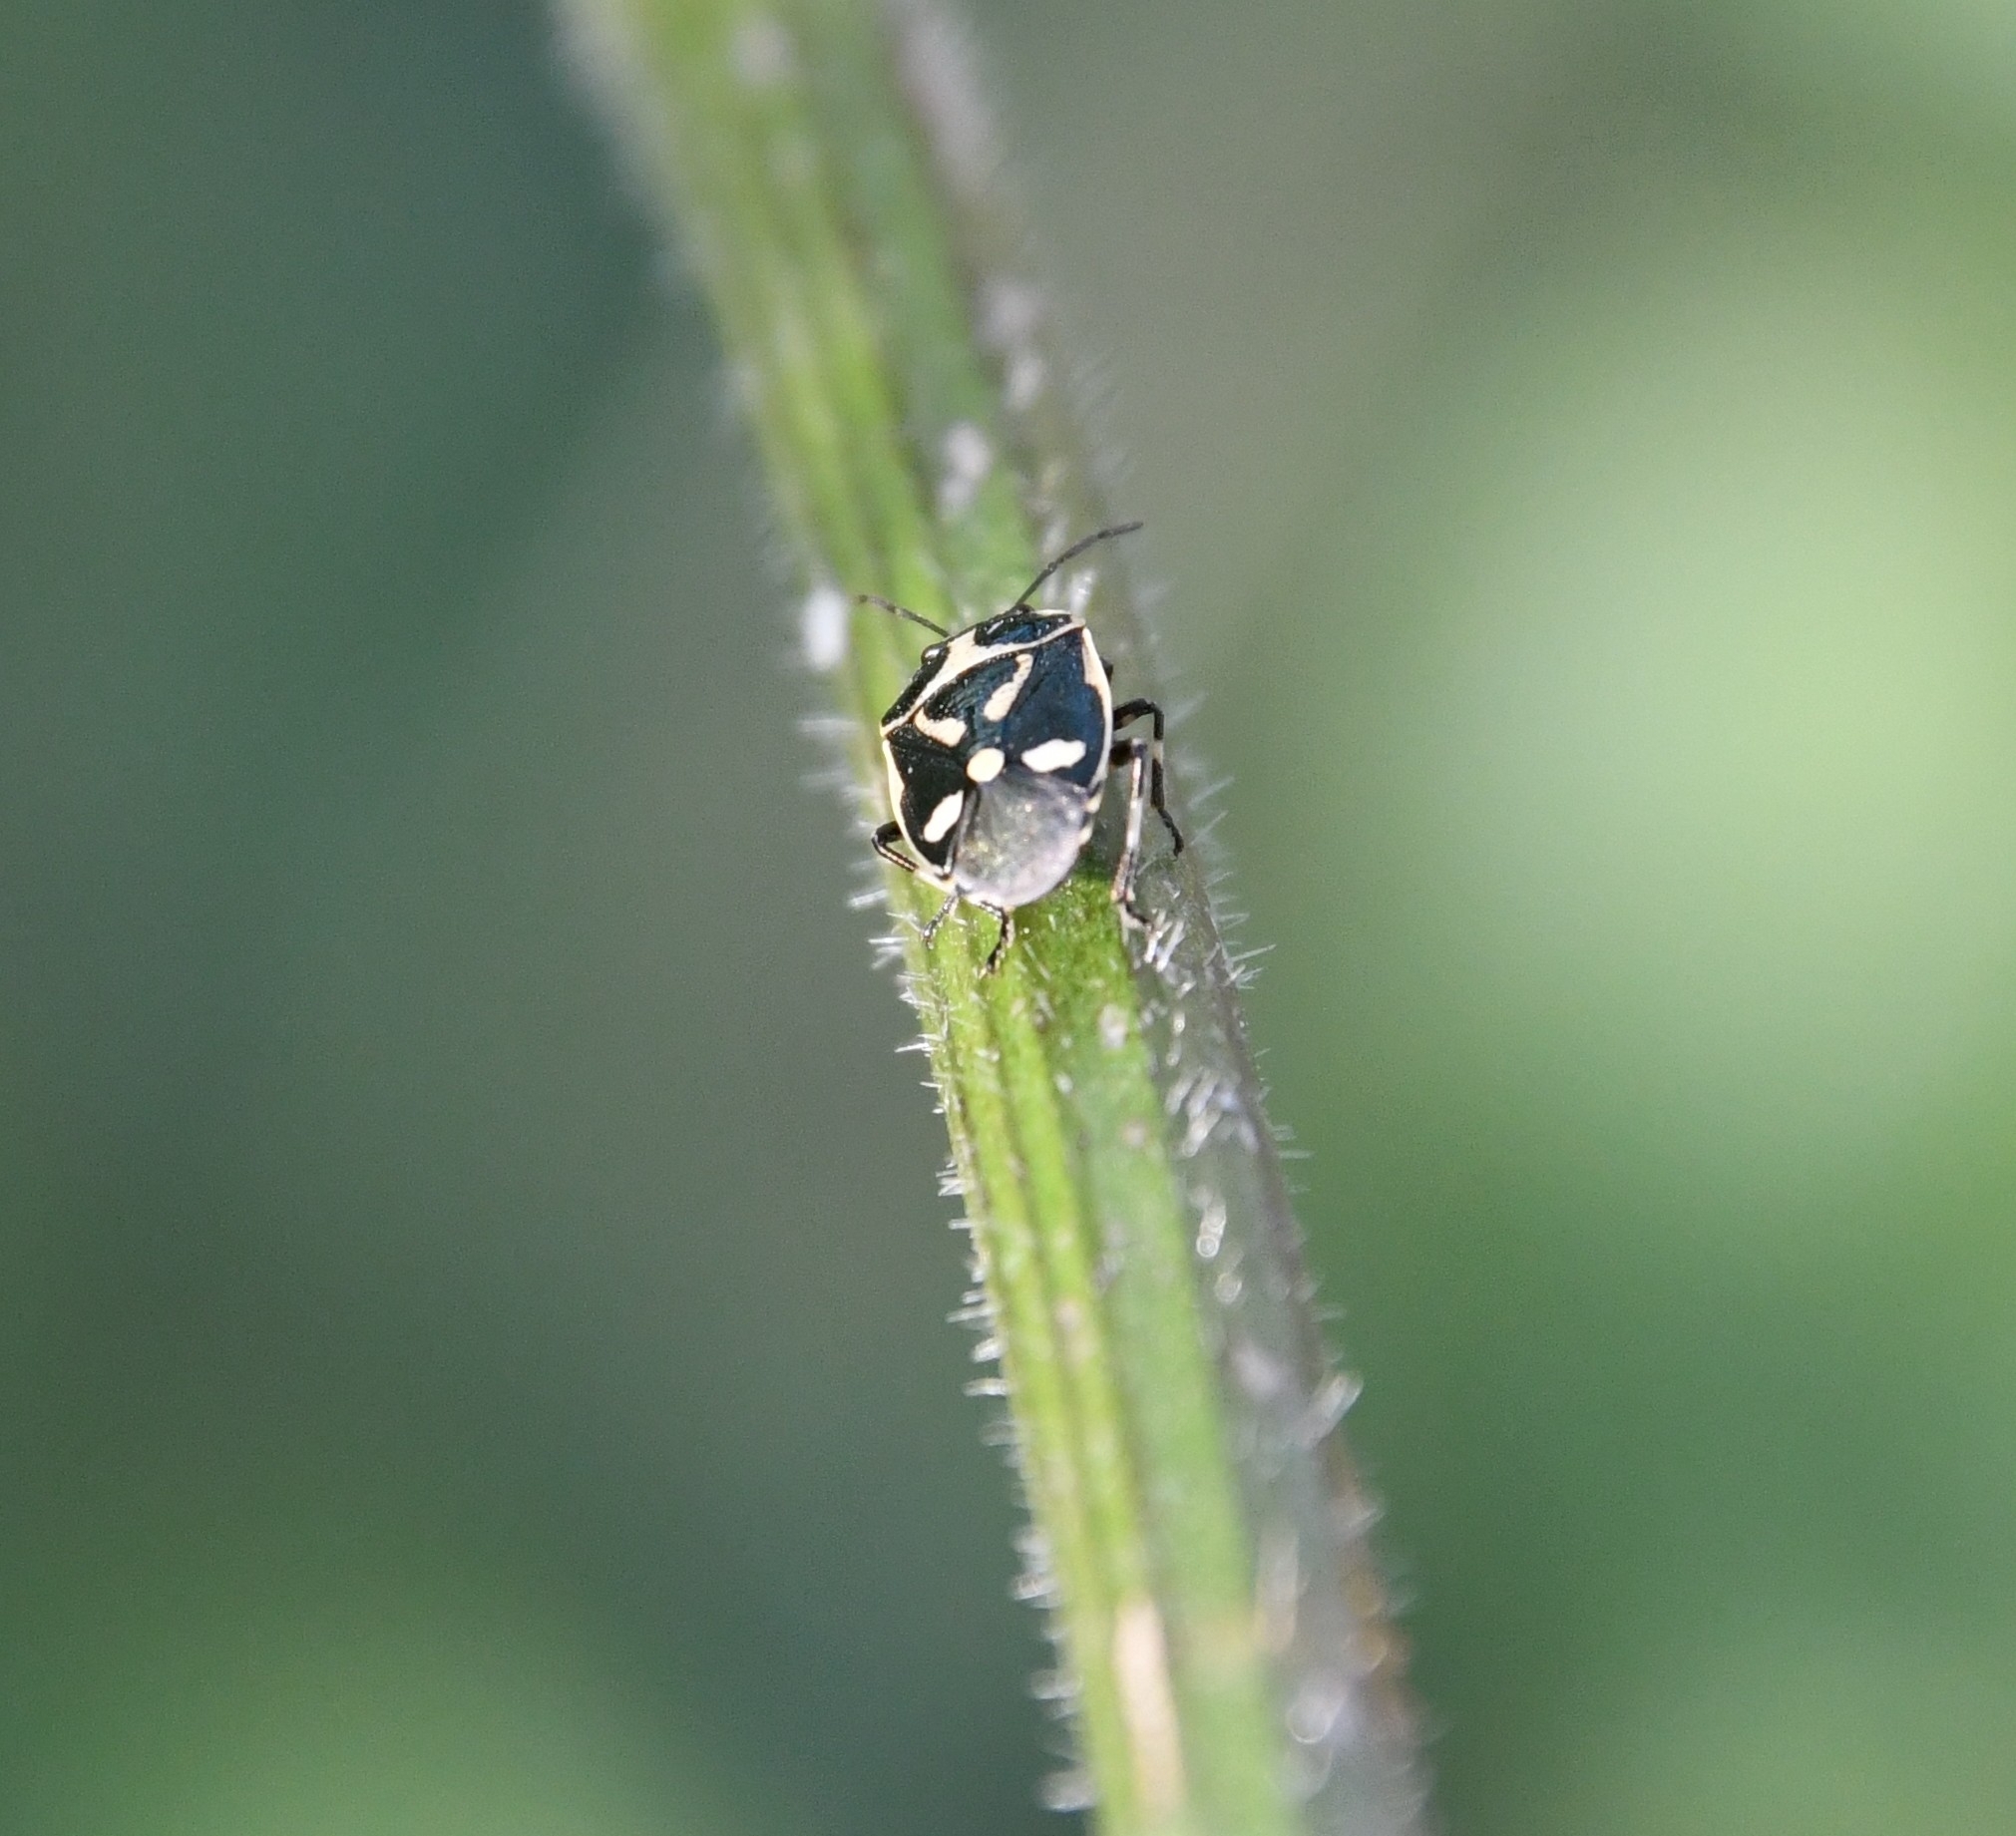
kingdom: Animalia
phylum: Arthropoda
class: Insecta
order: Hemiptera
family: Pentatomidae
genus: Eurydema
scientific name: Eurydema oleracea
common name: Cabbage bug
